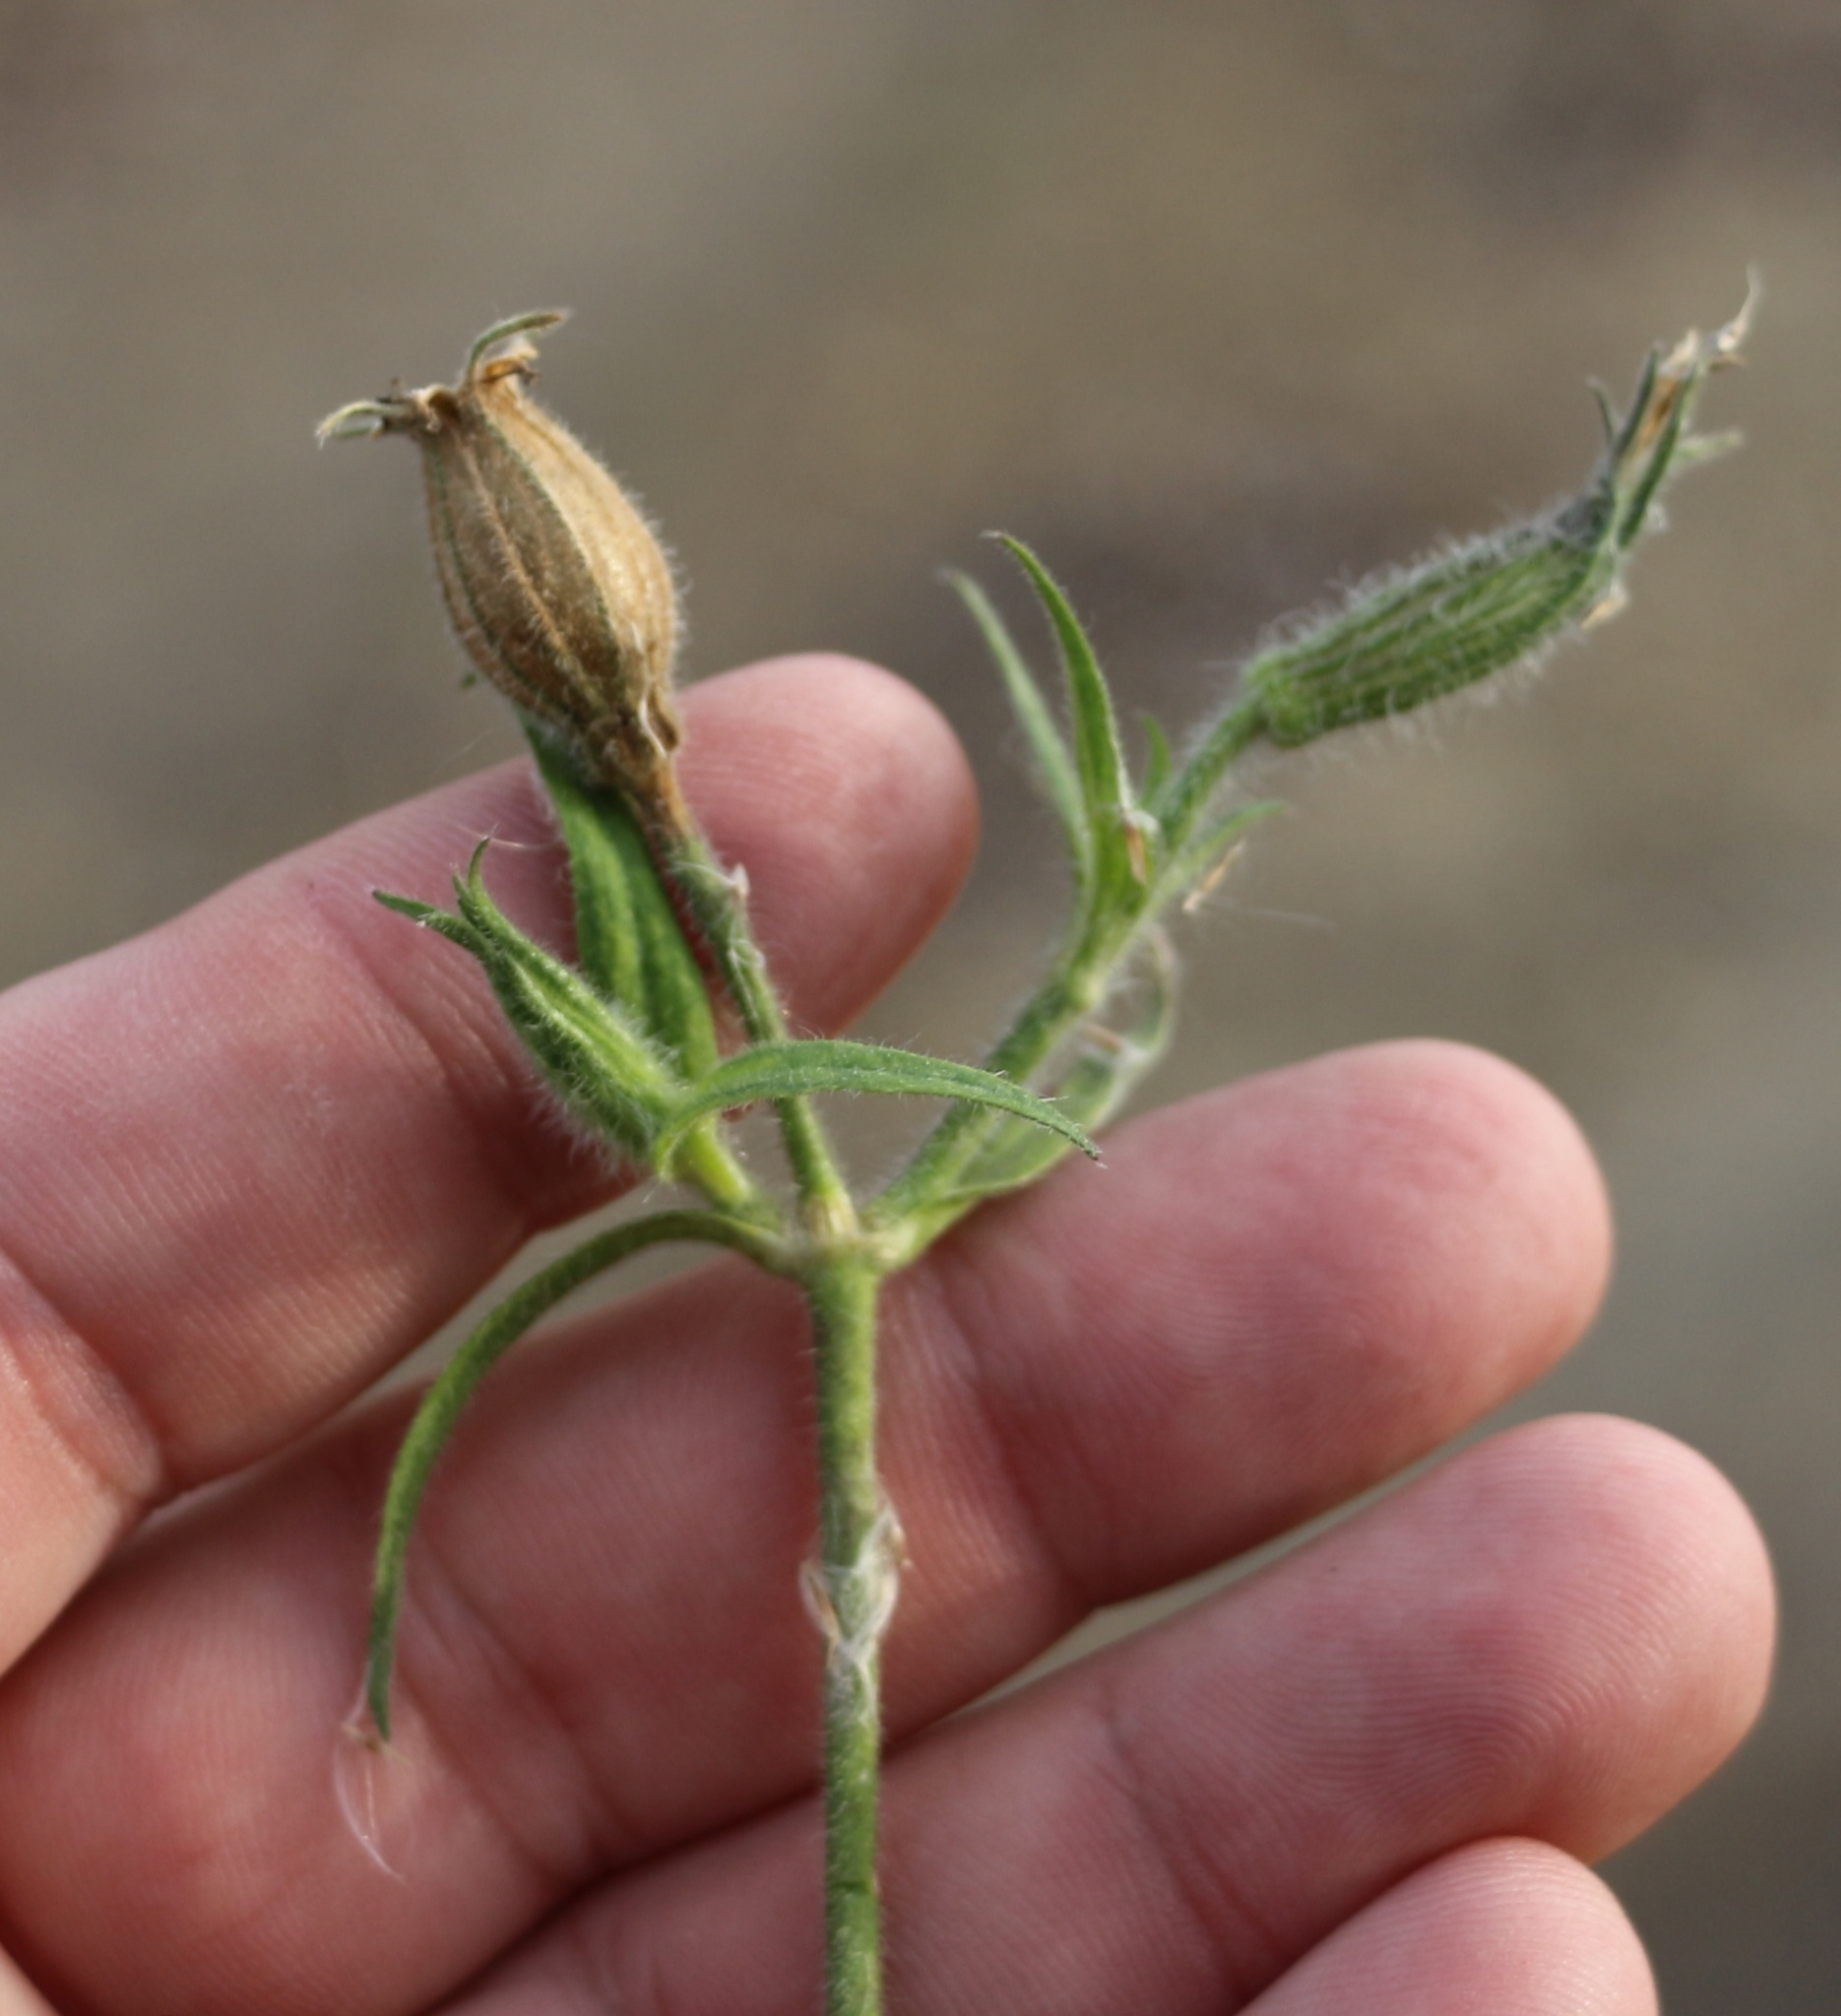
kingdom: Plantae
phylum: Tracheophyta
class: Magnoliopsida
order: Caryophyllales
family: Caryophyllaceae
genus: Silene
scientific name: Silene noctiflora
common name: Night-flowering catchfly
